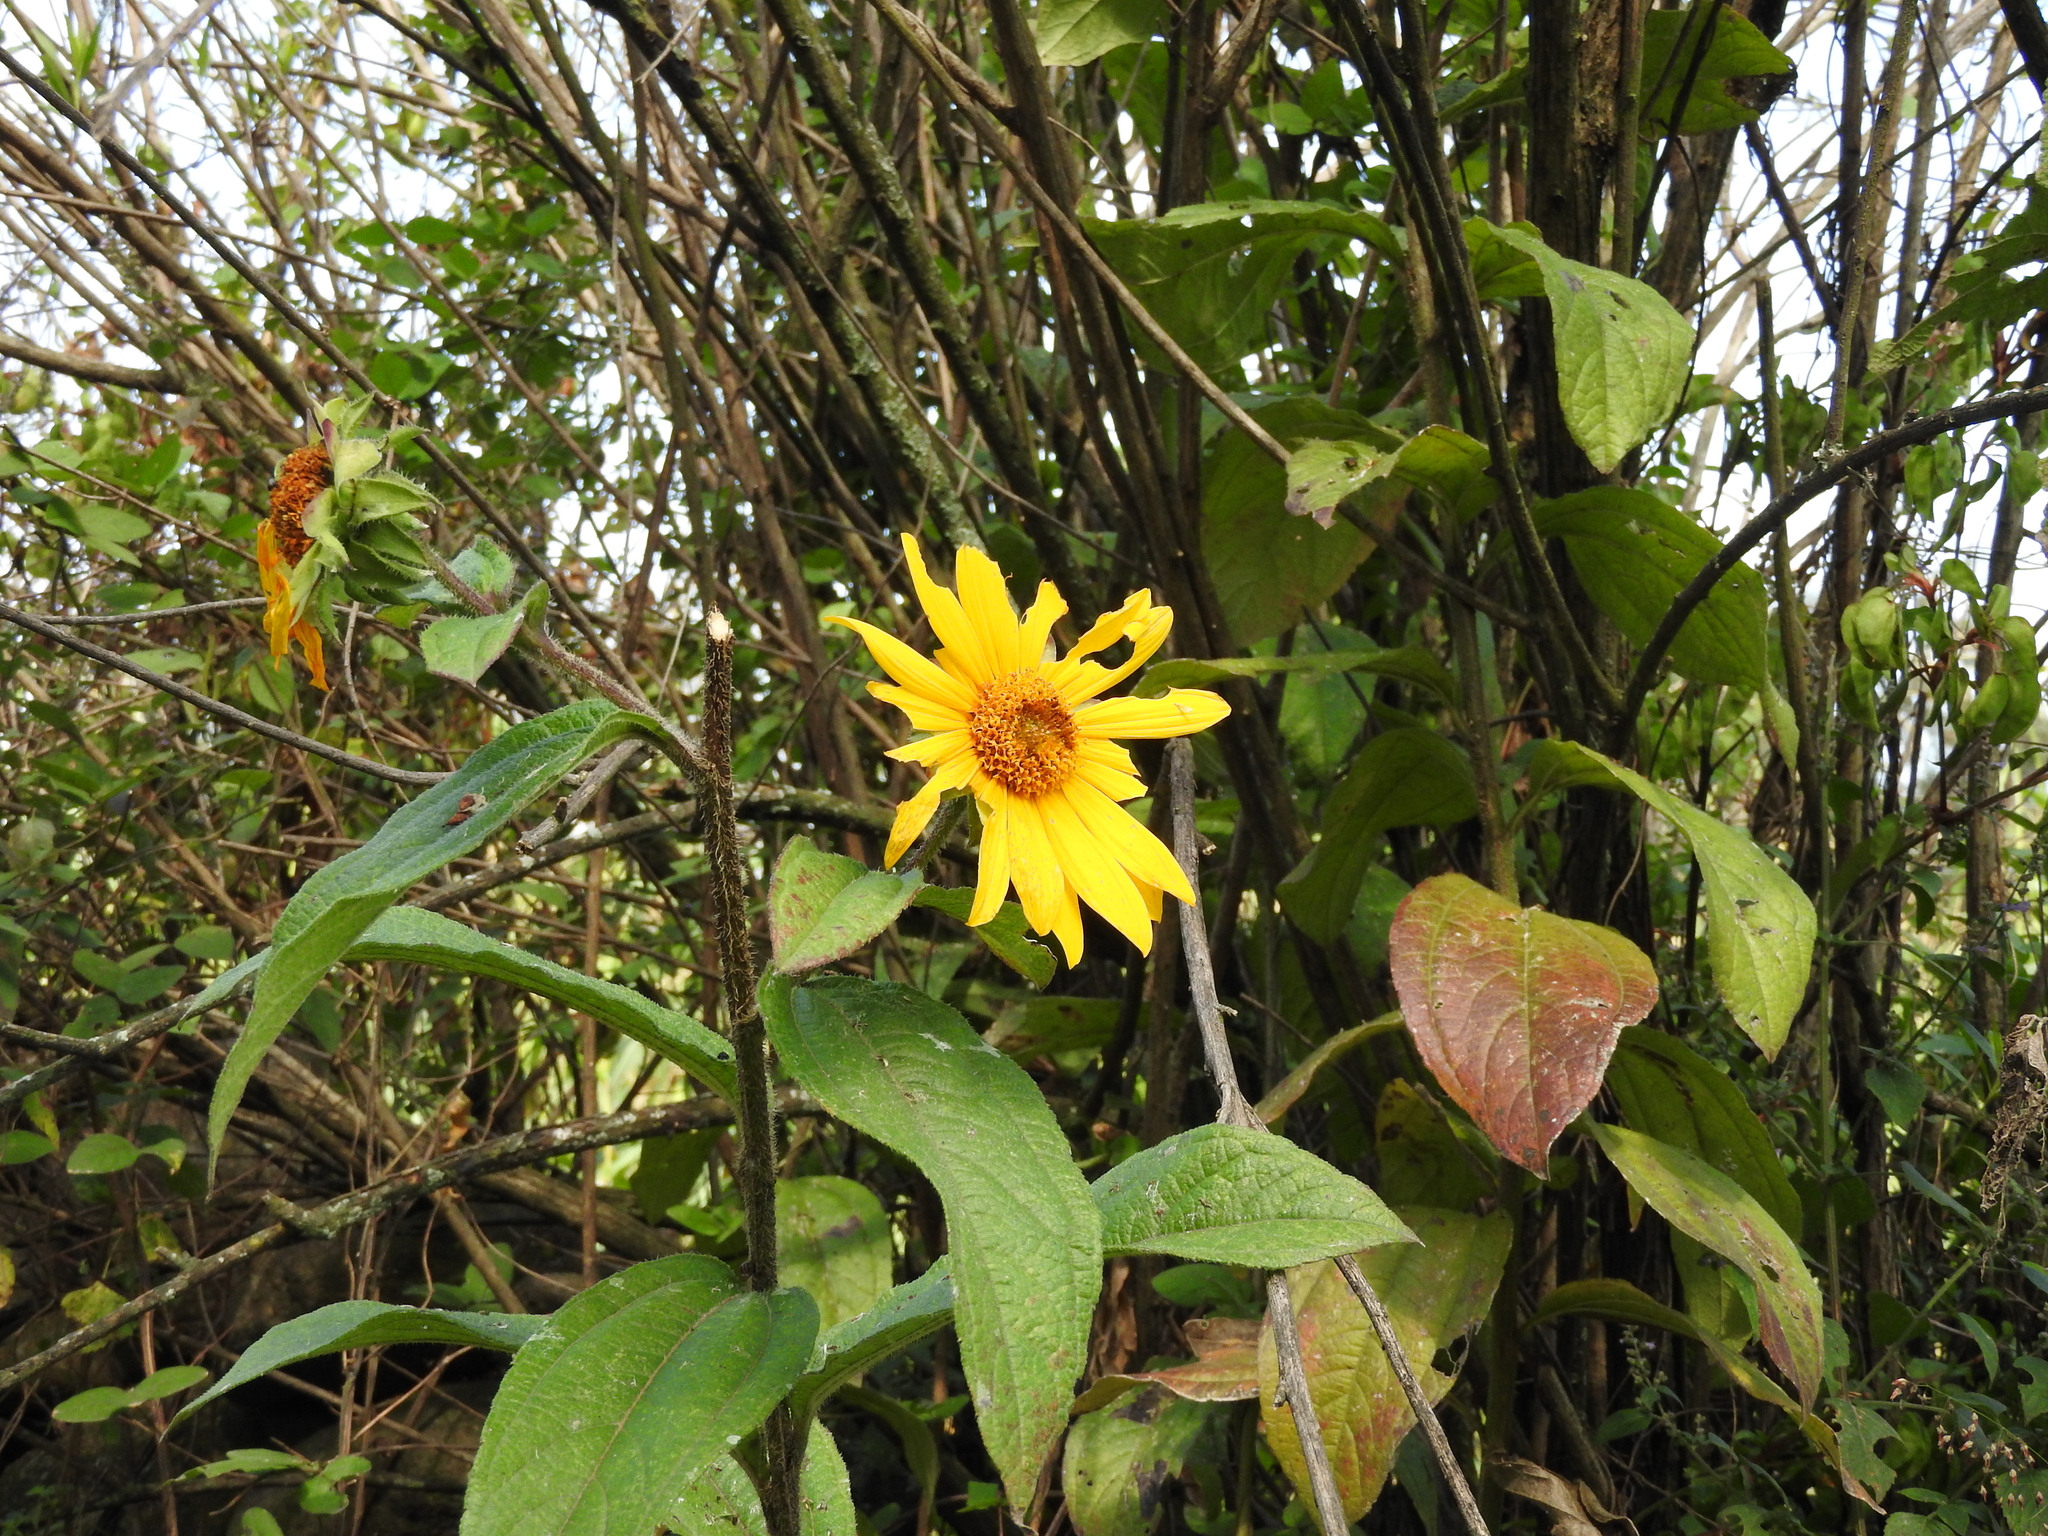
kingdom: Plantae
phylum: Tracheophyta
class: Magnoliopsida
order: Asterales
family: Asteraceae
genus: Tithonia
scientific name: Tithonia tubaeformis
